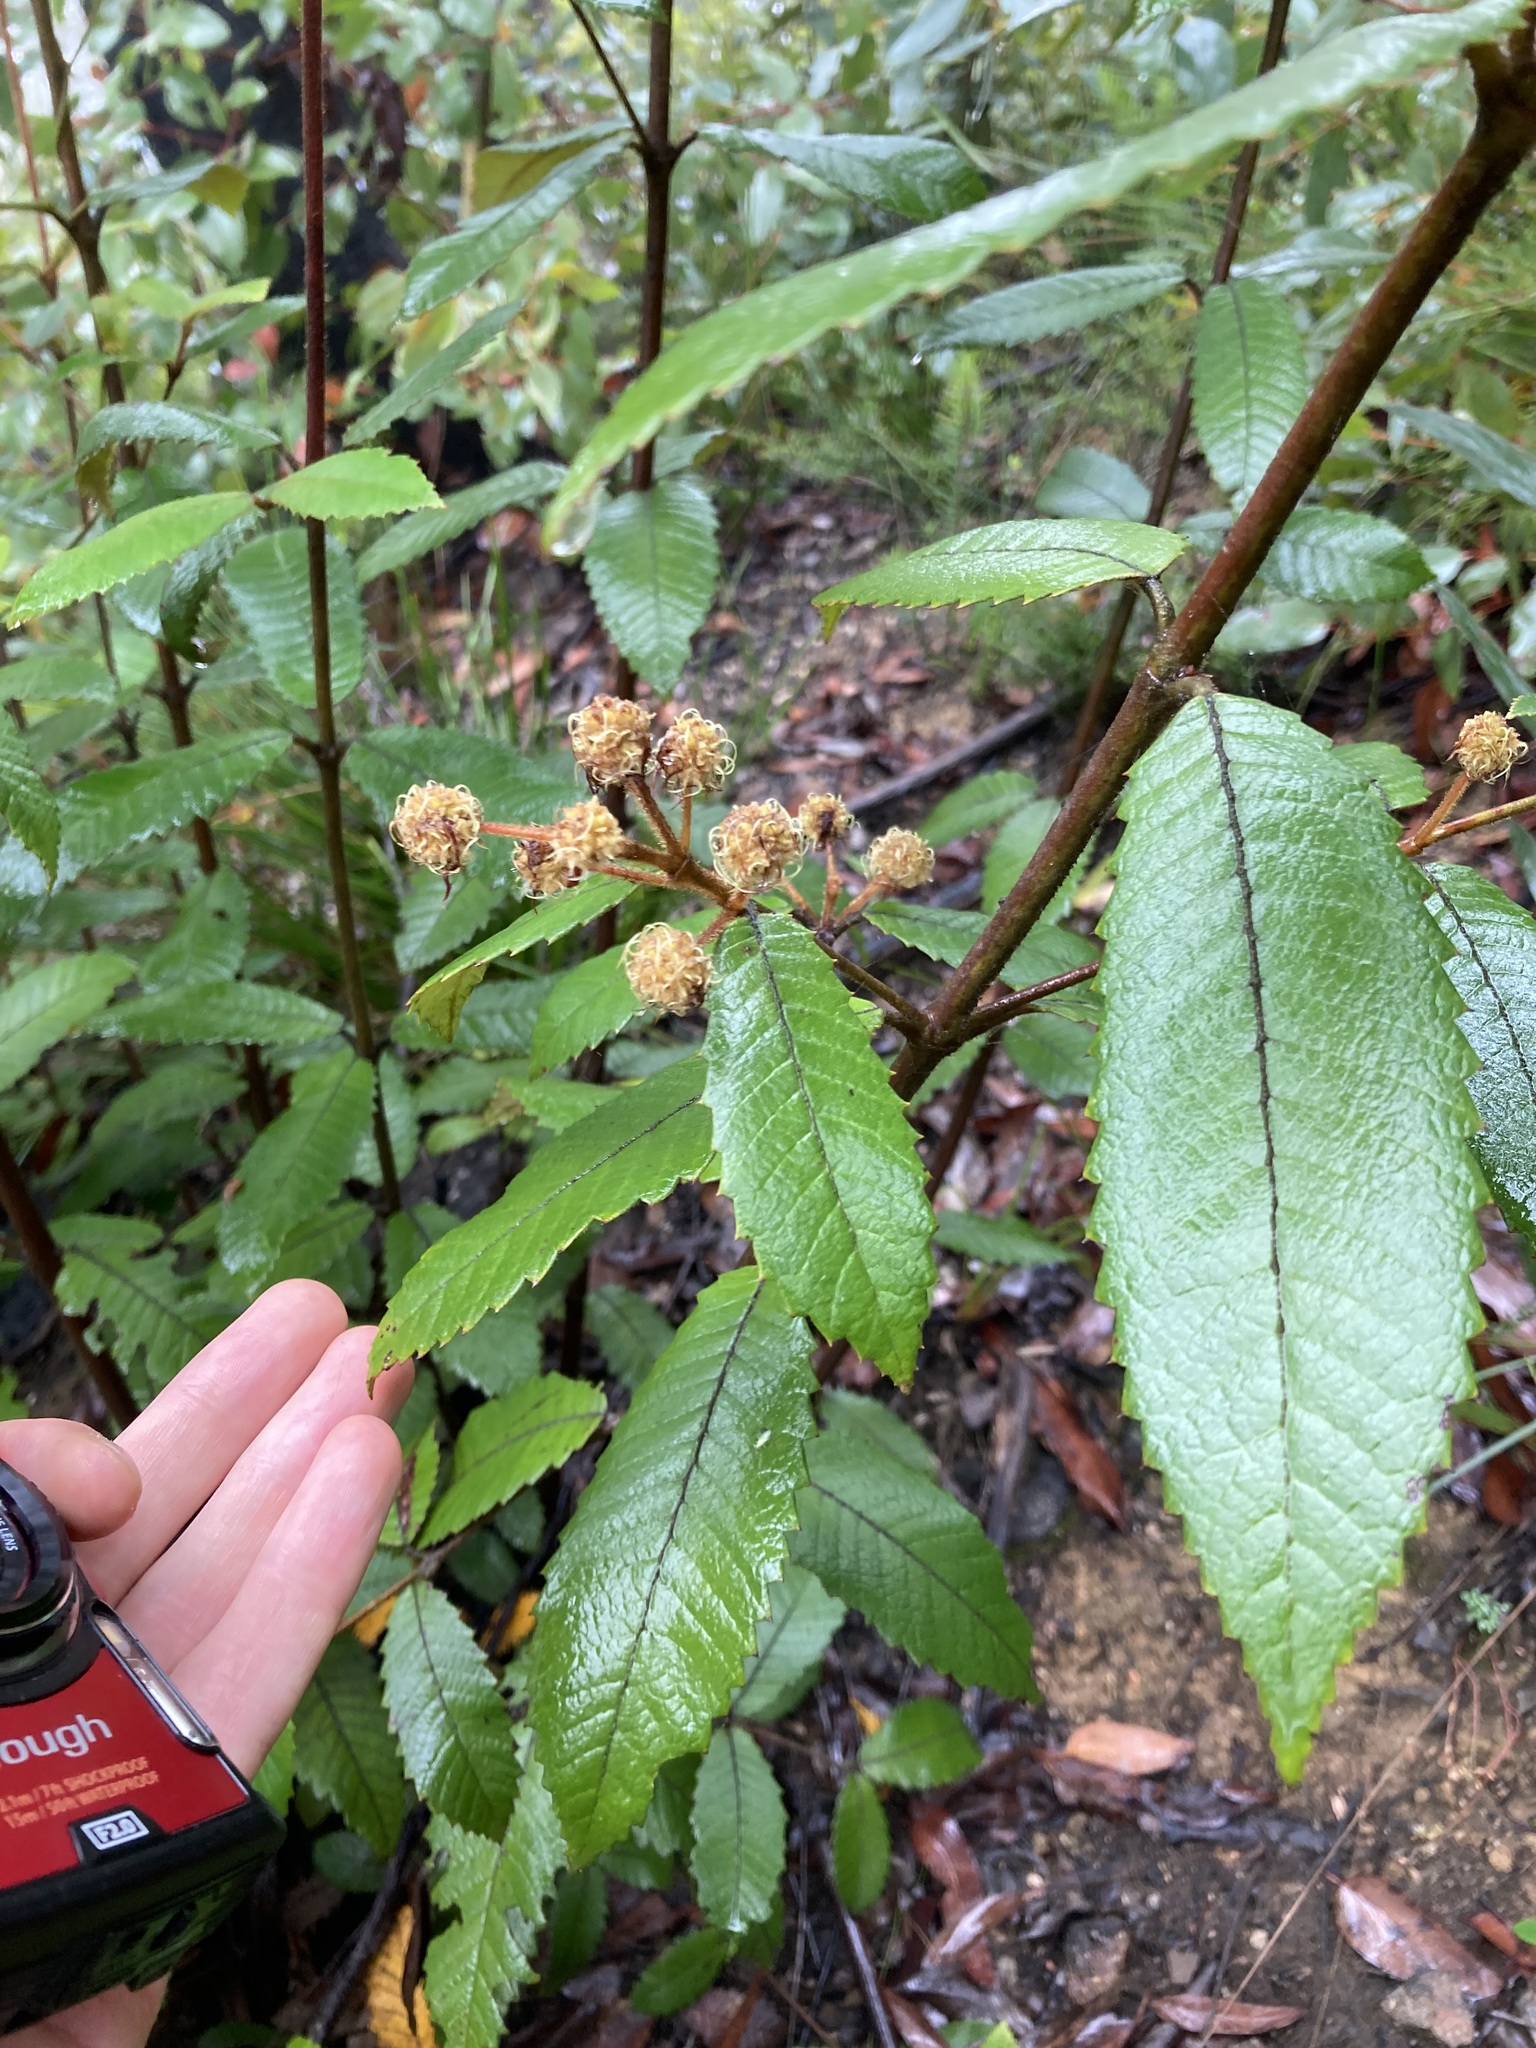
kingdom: Plantae
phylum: Tracheophyta
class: Magnoliopsida
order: Oxalidales
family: Cunoniaceae
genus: Callicoma
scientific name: Callicoma serratifolia
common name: Black wattle
